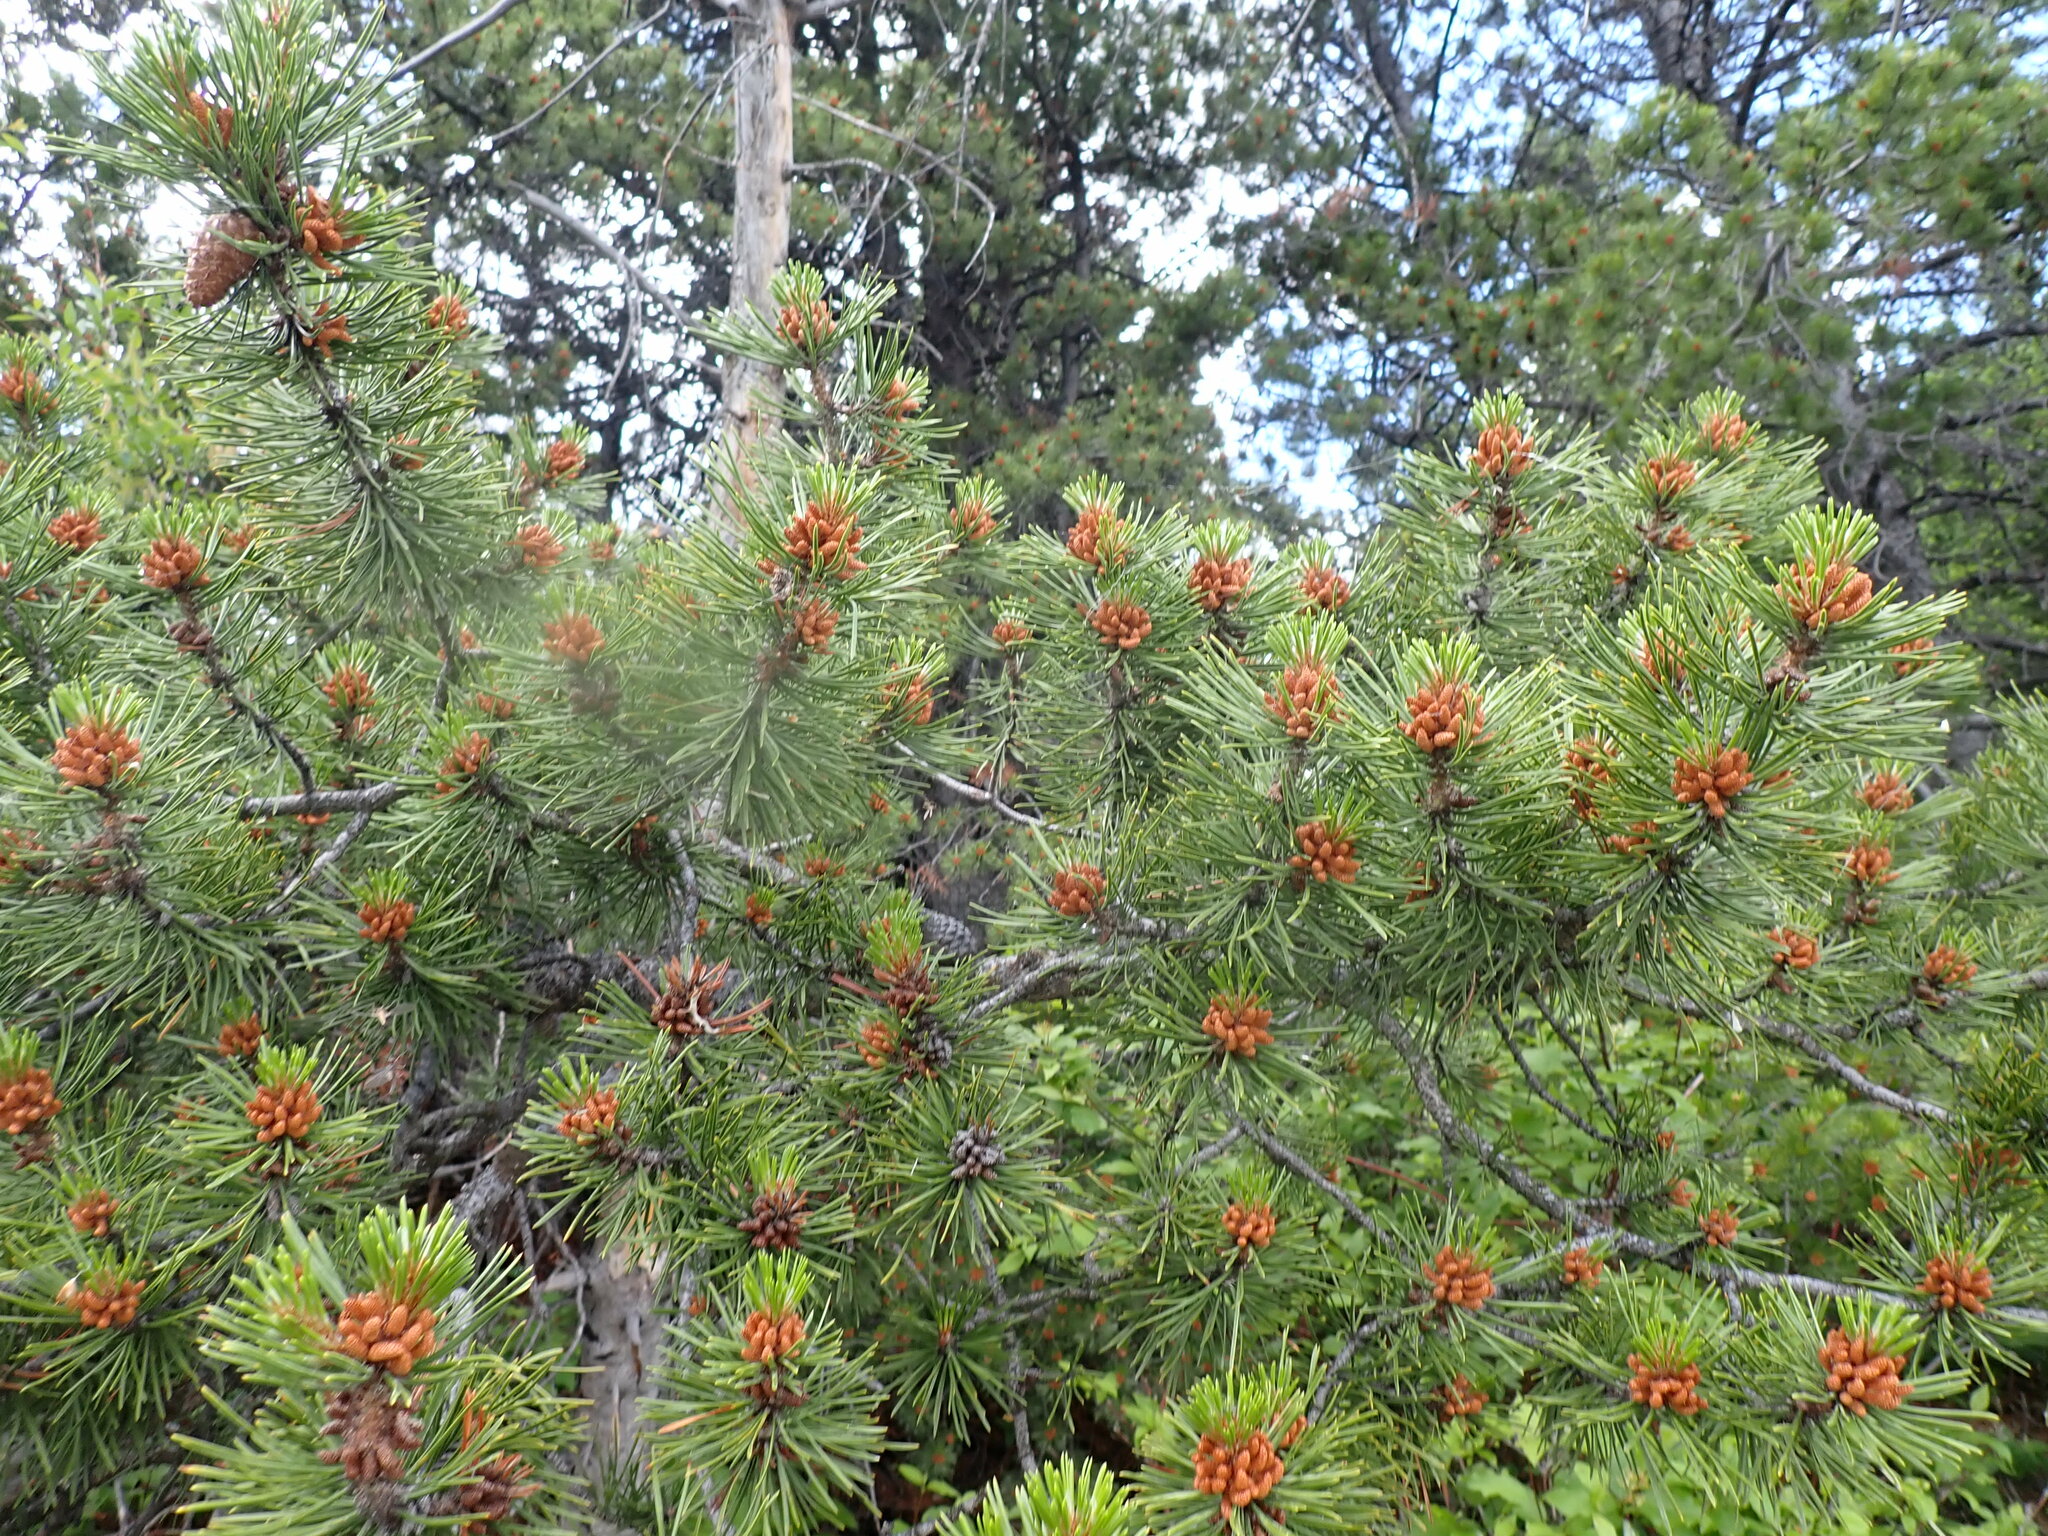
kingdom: Plantae
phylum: Tracheophyta
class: Pinopsida
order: Pinales
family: Pinaceae
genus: Pinus
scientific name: Pinus contorta
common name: Lodgepole pine
